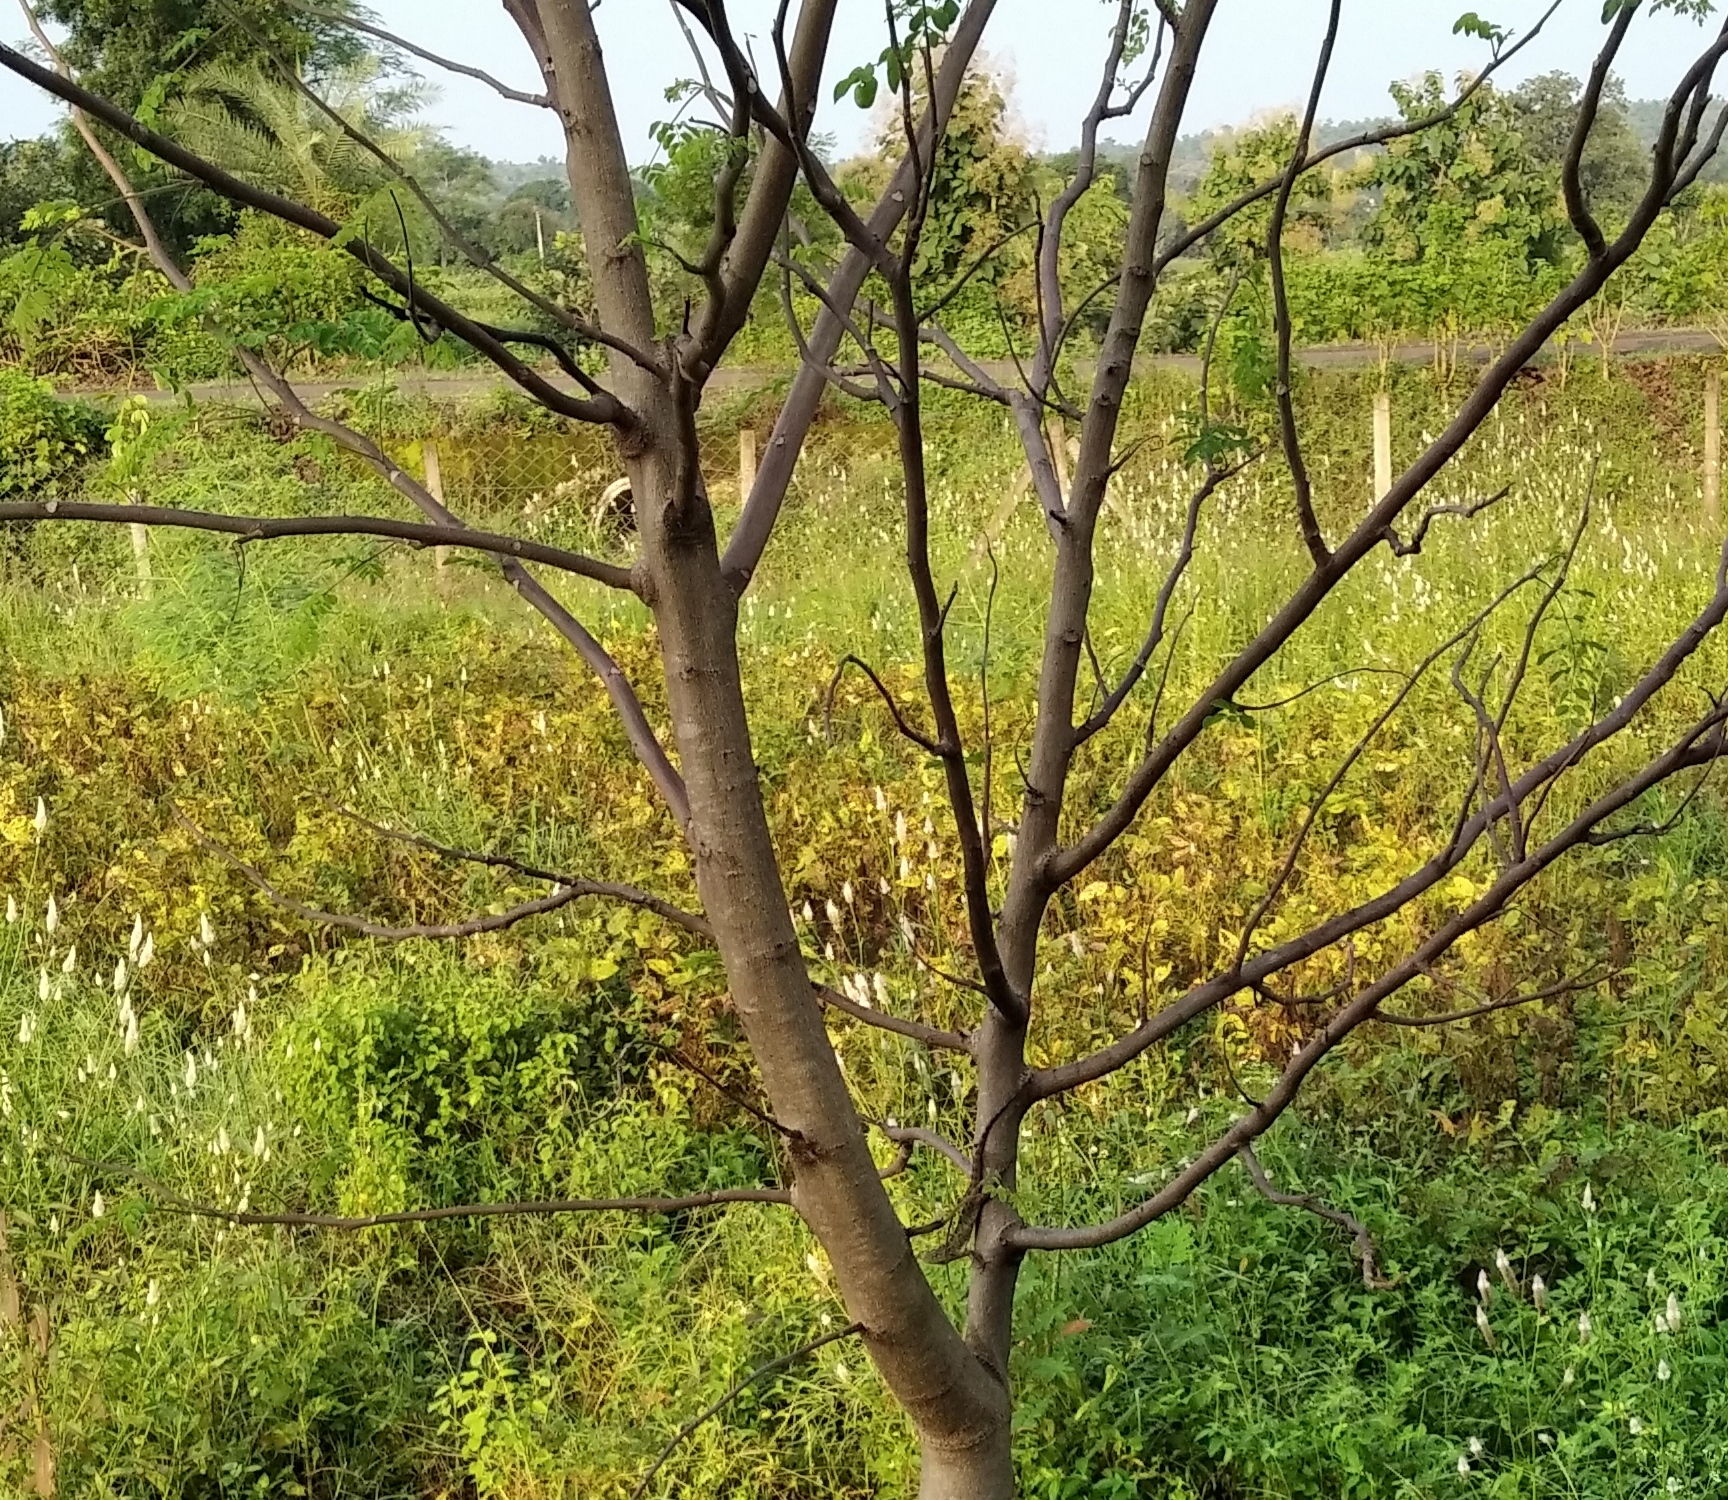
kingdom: Animalia
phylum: Chordata
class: Squamata
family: Agamidae
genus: Calotes
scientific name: Calotes versicolor
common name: Oriental garden lizard
